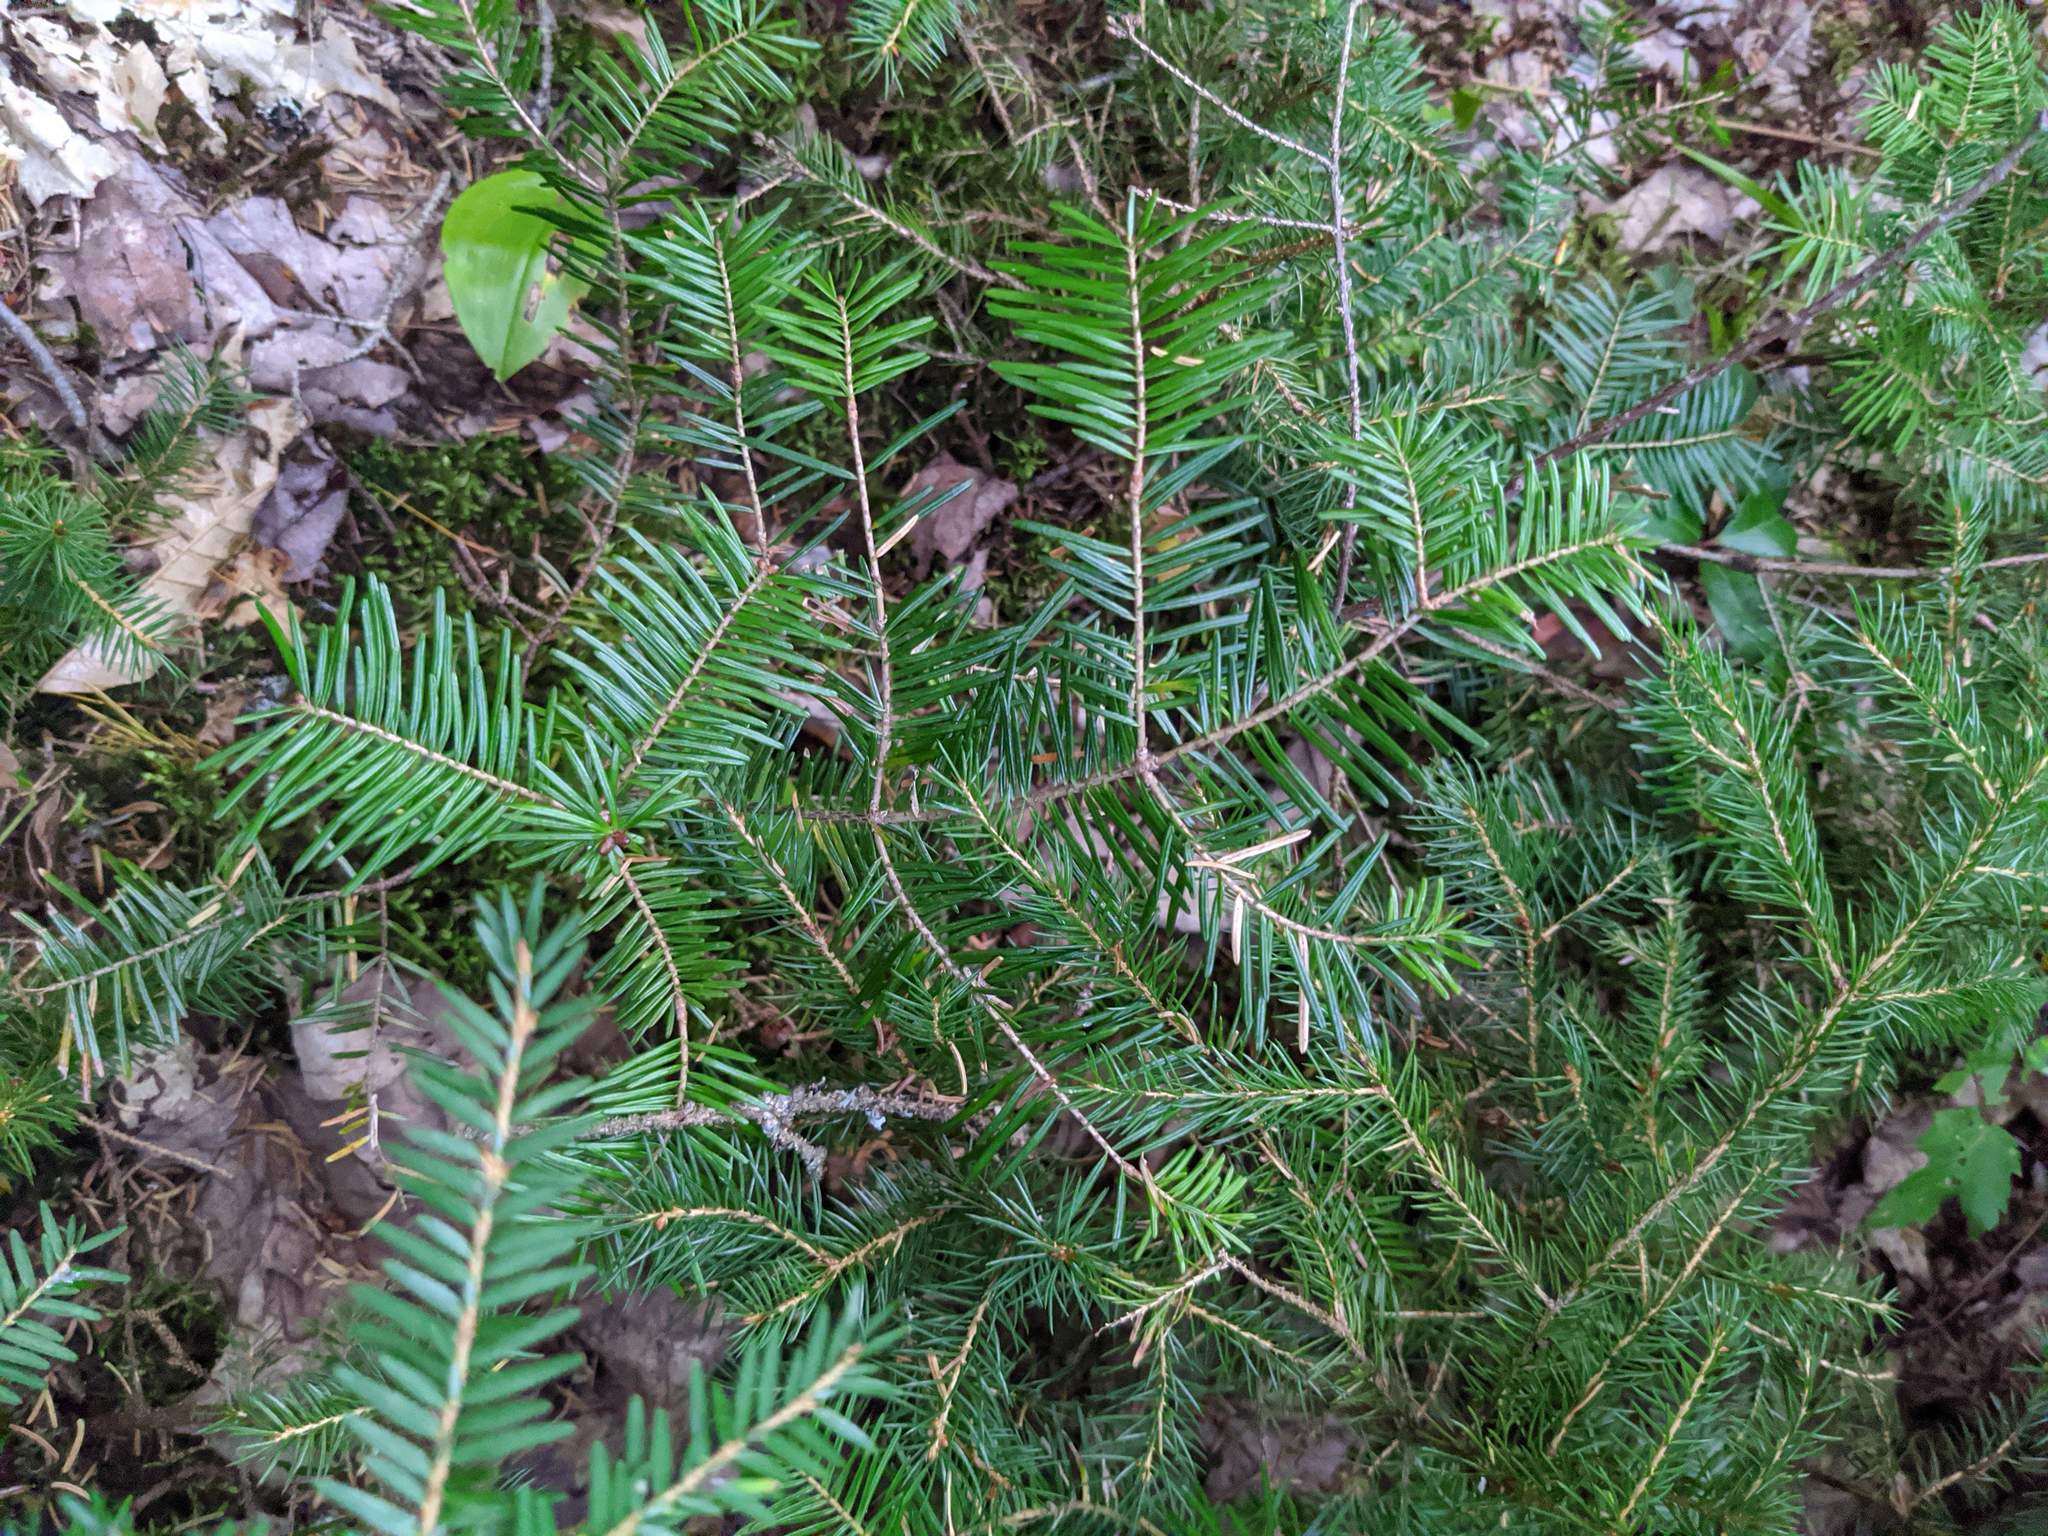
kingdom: Plantae
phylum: Tracheophyta
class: Pinopsida
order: Pinales
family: Pinaceae
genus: Abies
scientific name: Abies balsamea
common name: Balsam fir
